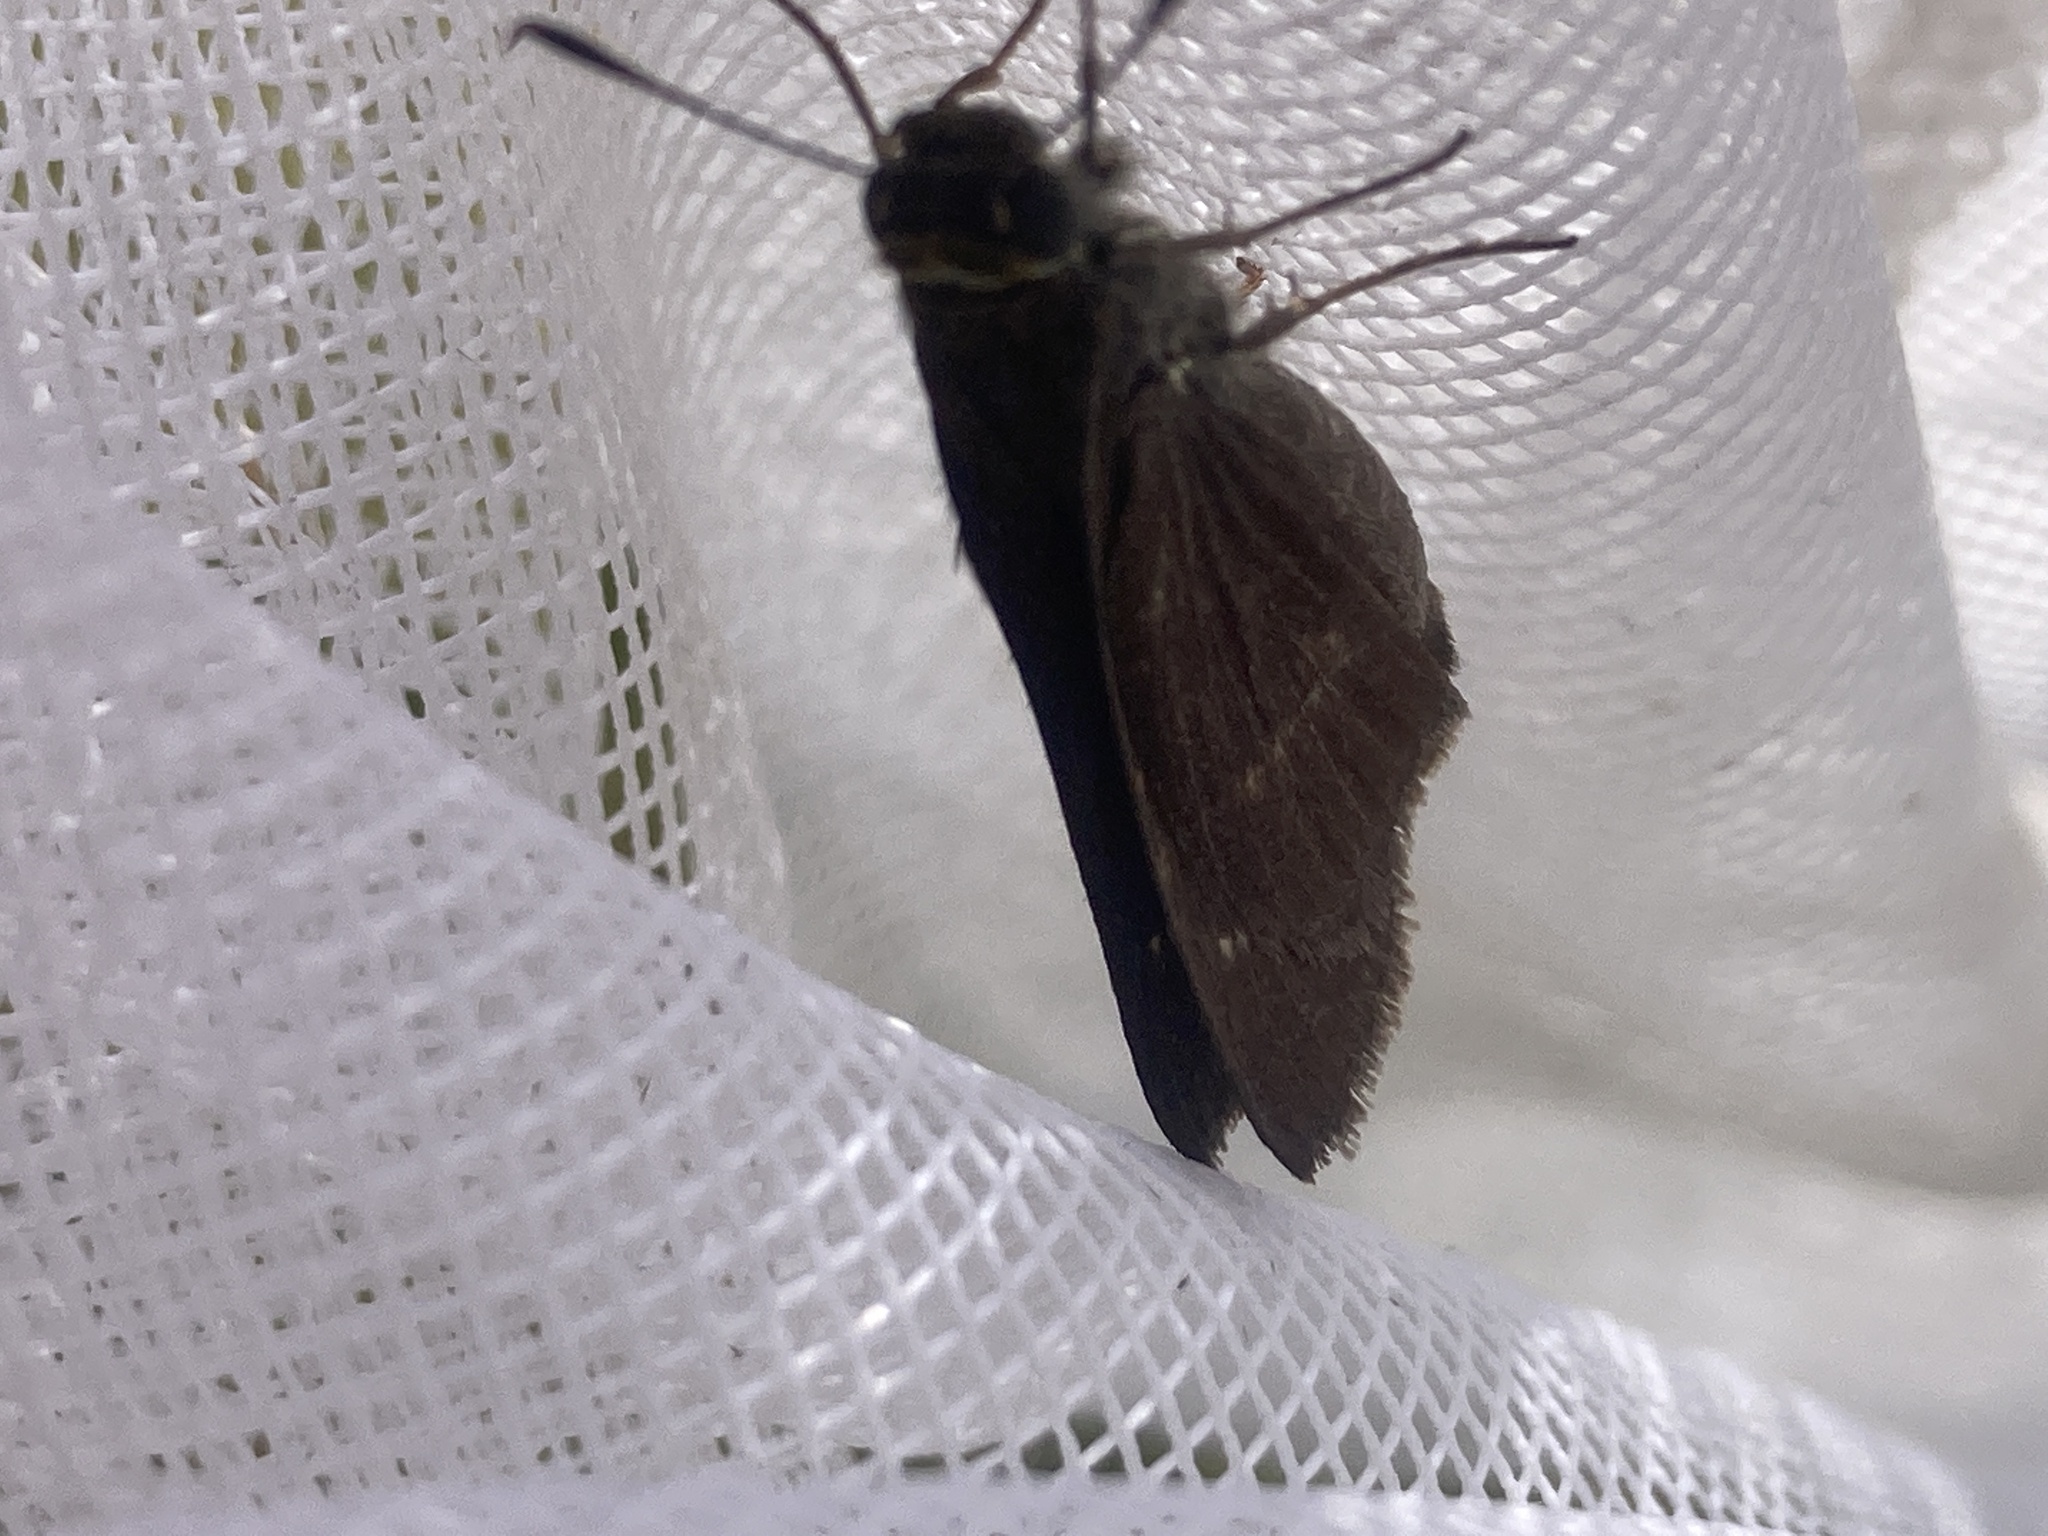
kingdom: Animalia
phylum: Arthropoda
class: Insecta
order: Lepidoptera
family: Hesperiidae
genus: Euphyes
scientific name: Euphyes vestris
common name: Dun skipper
